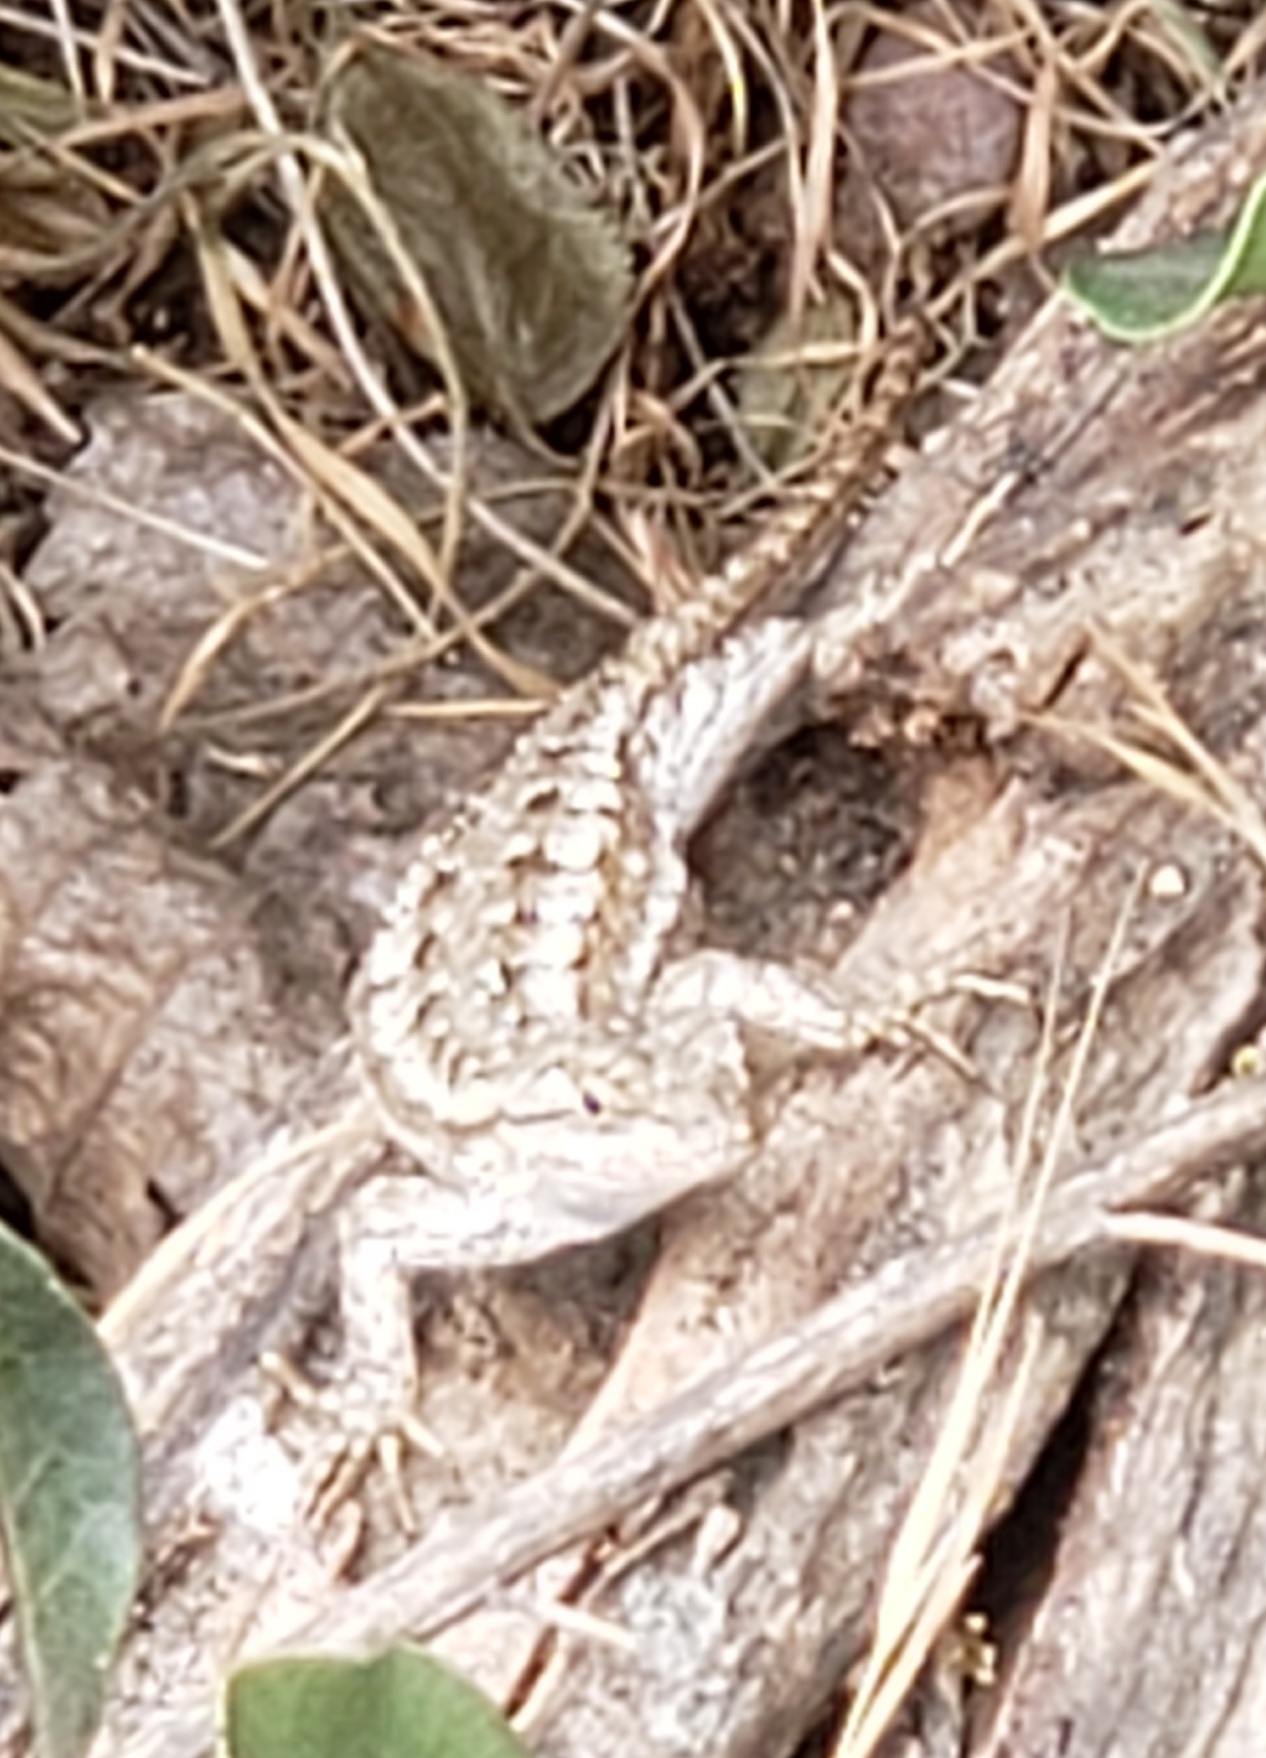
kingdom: Animalia
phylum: Chordata
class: Squamata
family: Phrynosomatidae
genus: Sceloporus
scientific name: Sceloporus occidentalis
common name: Western fence lizard
